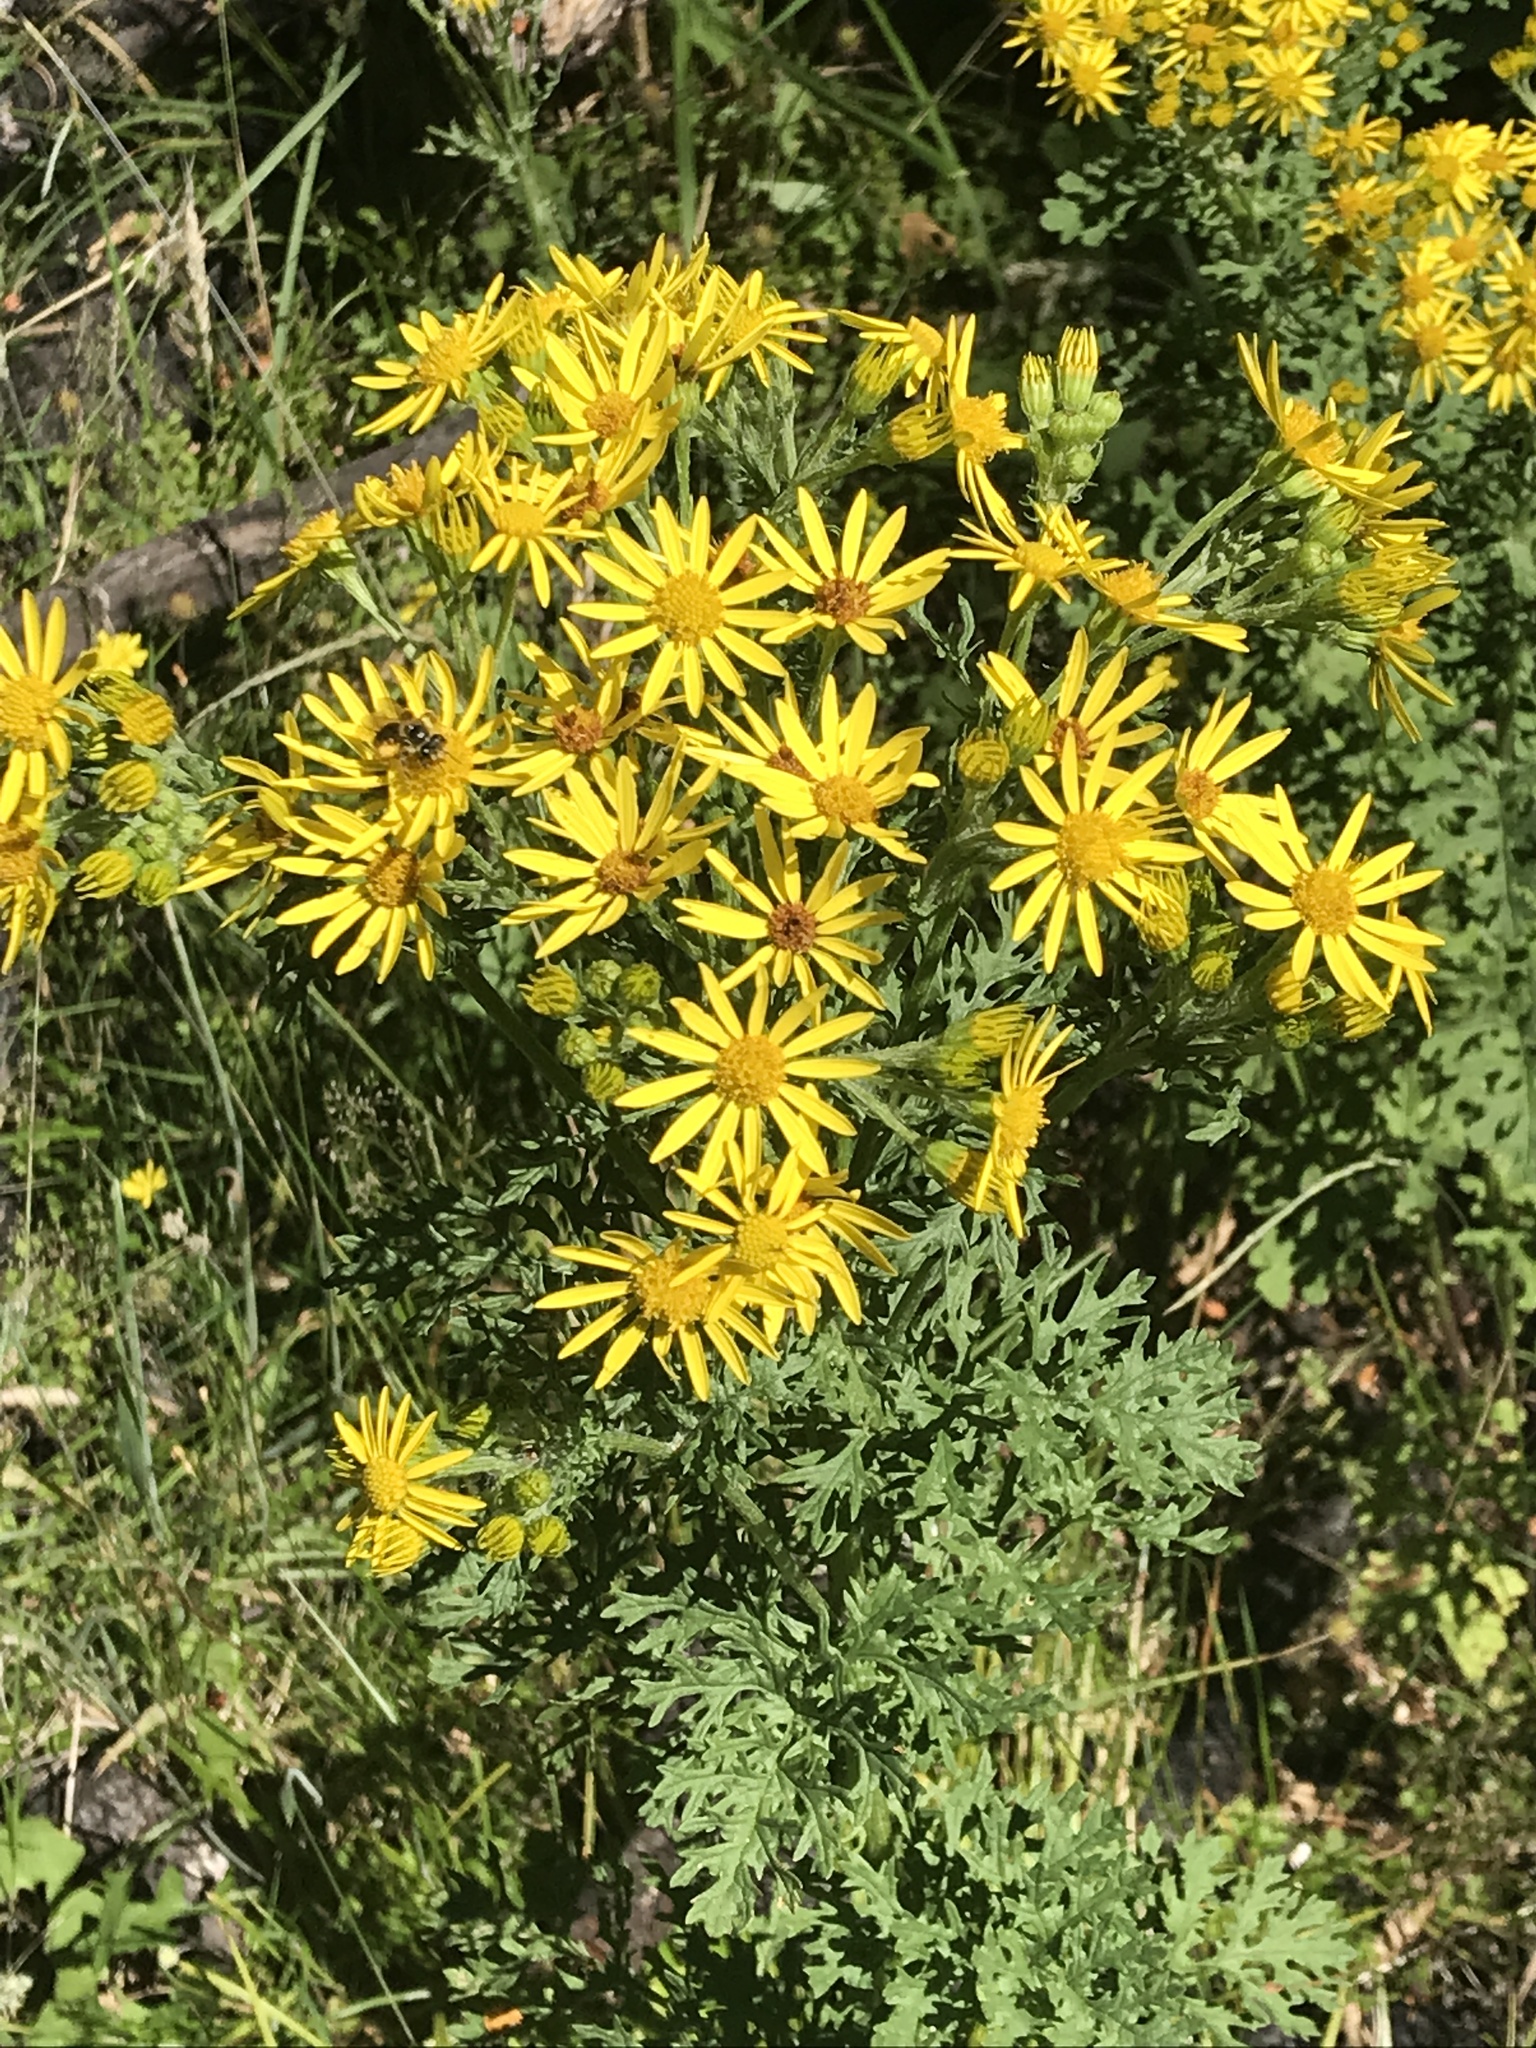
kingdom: Plantae
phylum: Tracheophyta
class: Magnoliopsida
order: Asterales
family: Asteraceae
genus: Jacobaea
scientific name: Jacobaea vulgaris
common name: Stinking willie
